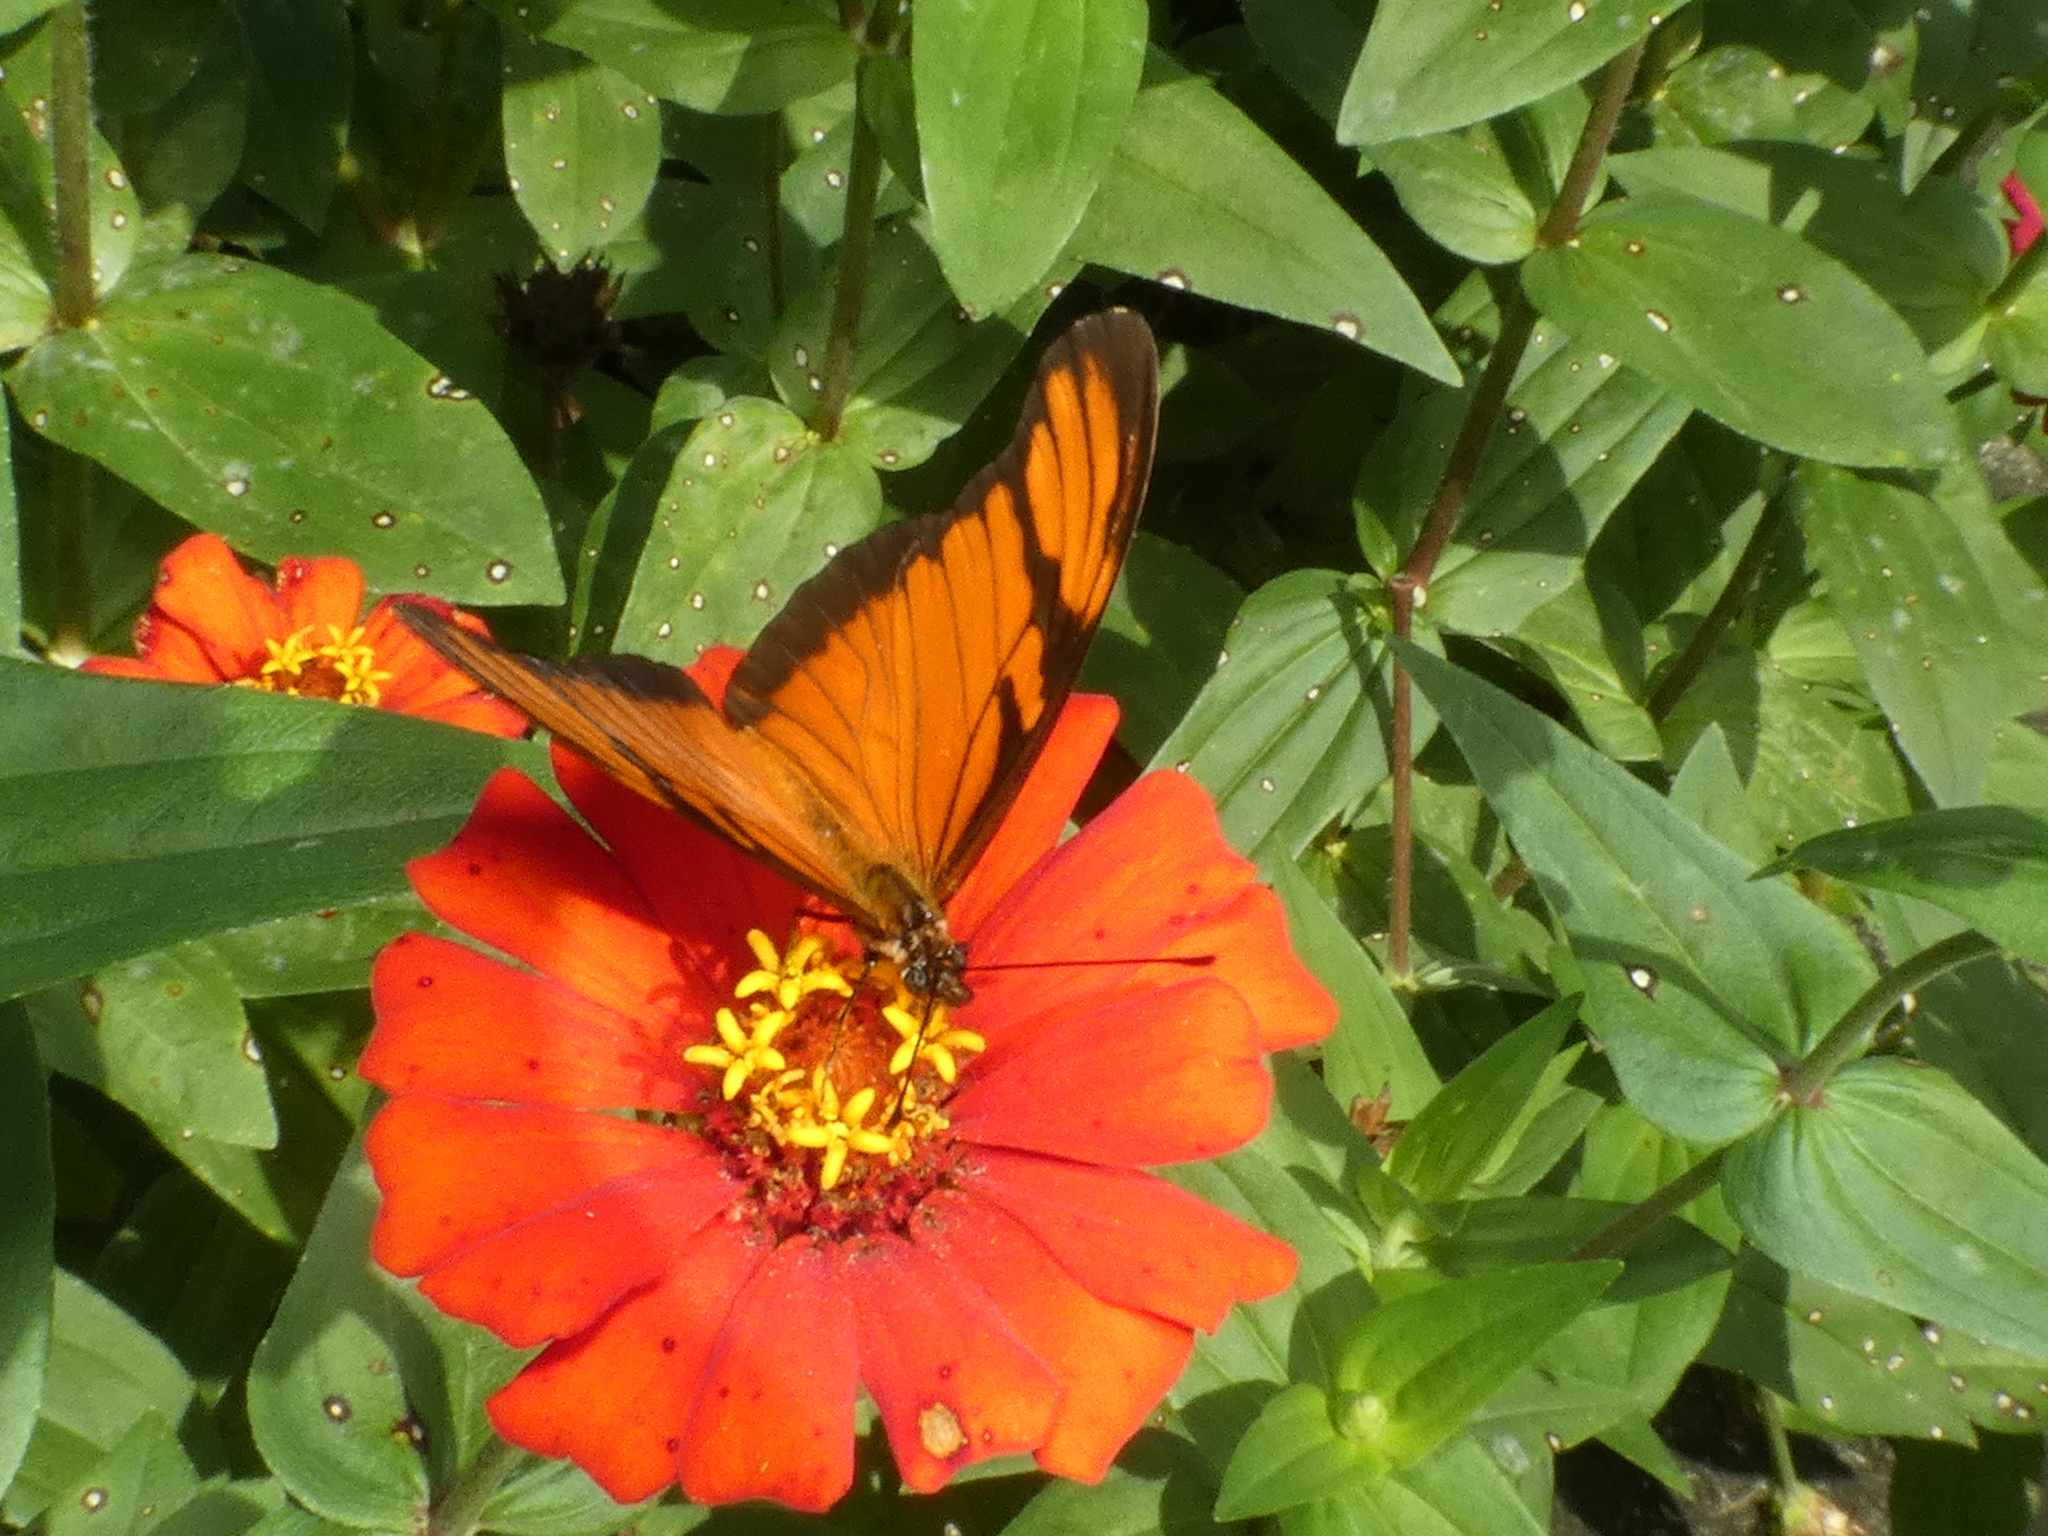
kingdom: Animalia
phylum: Arthropoda
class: Insecta
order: Lepidoptera
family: Nymphalidae
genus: Dione
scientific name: Dione juno
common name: Juno silverspot
